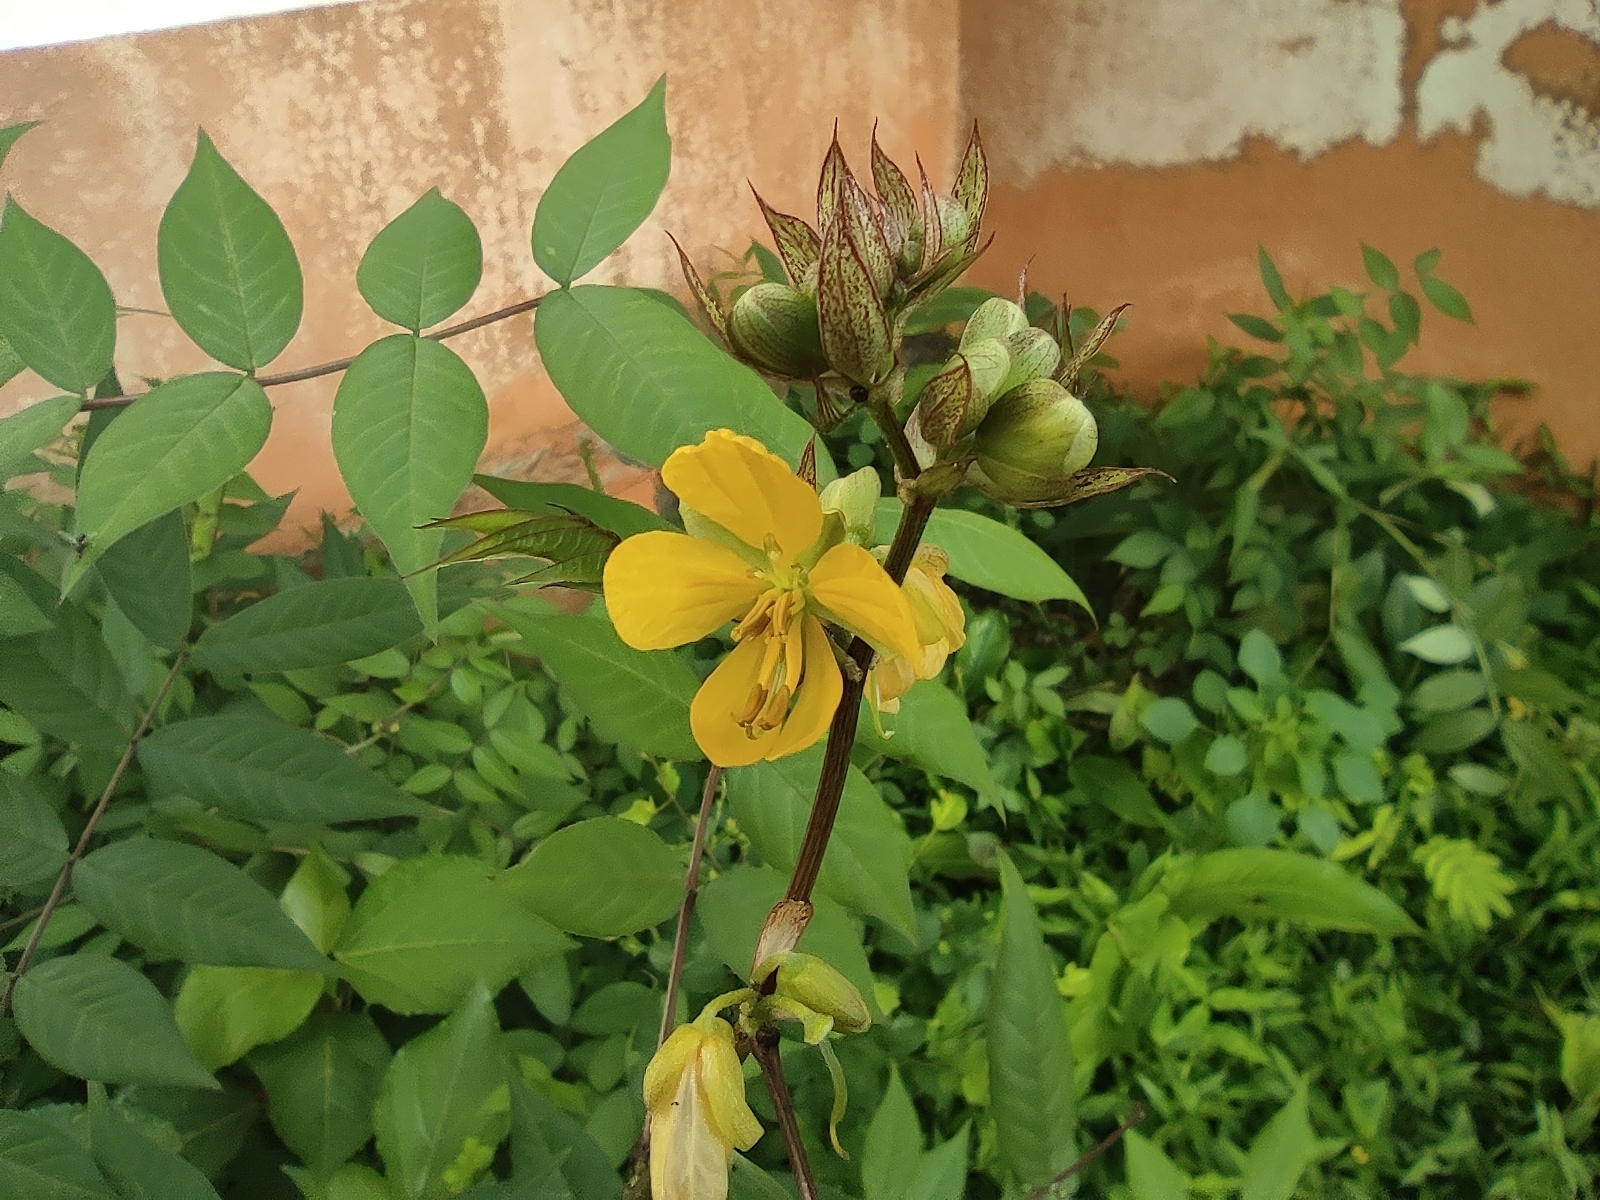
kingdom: Plantae
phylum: Tracheophyta
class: Magnoliopsida
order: Fabales
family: Fabaceae
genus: Senna
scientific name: Senna occidentalis
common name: Septicweed
